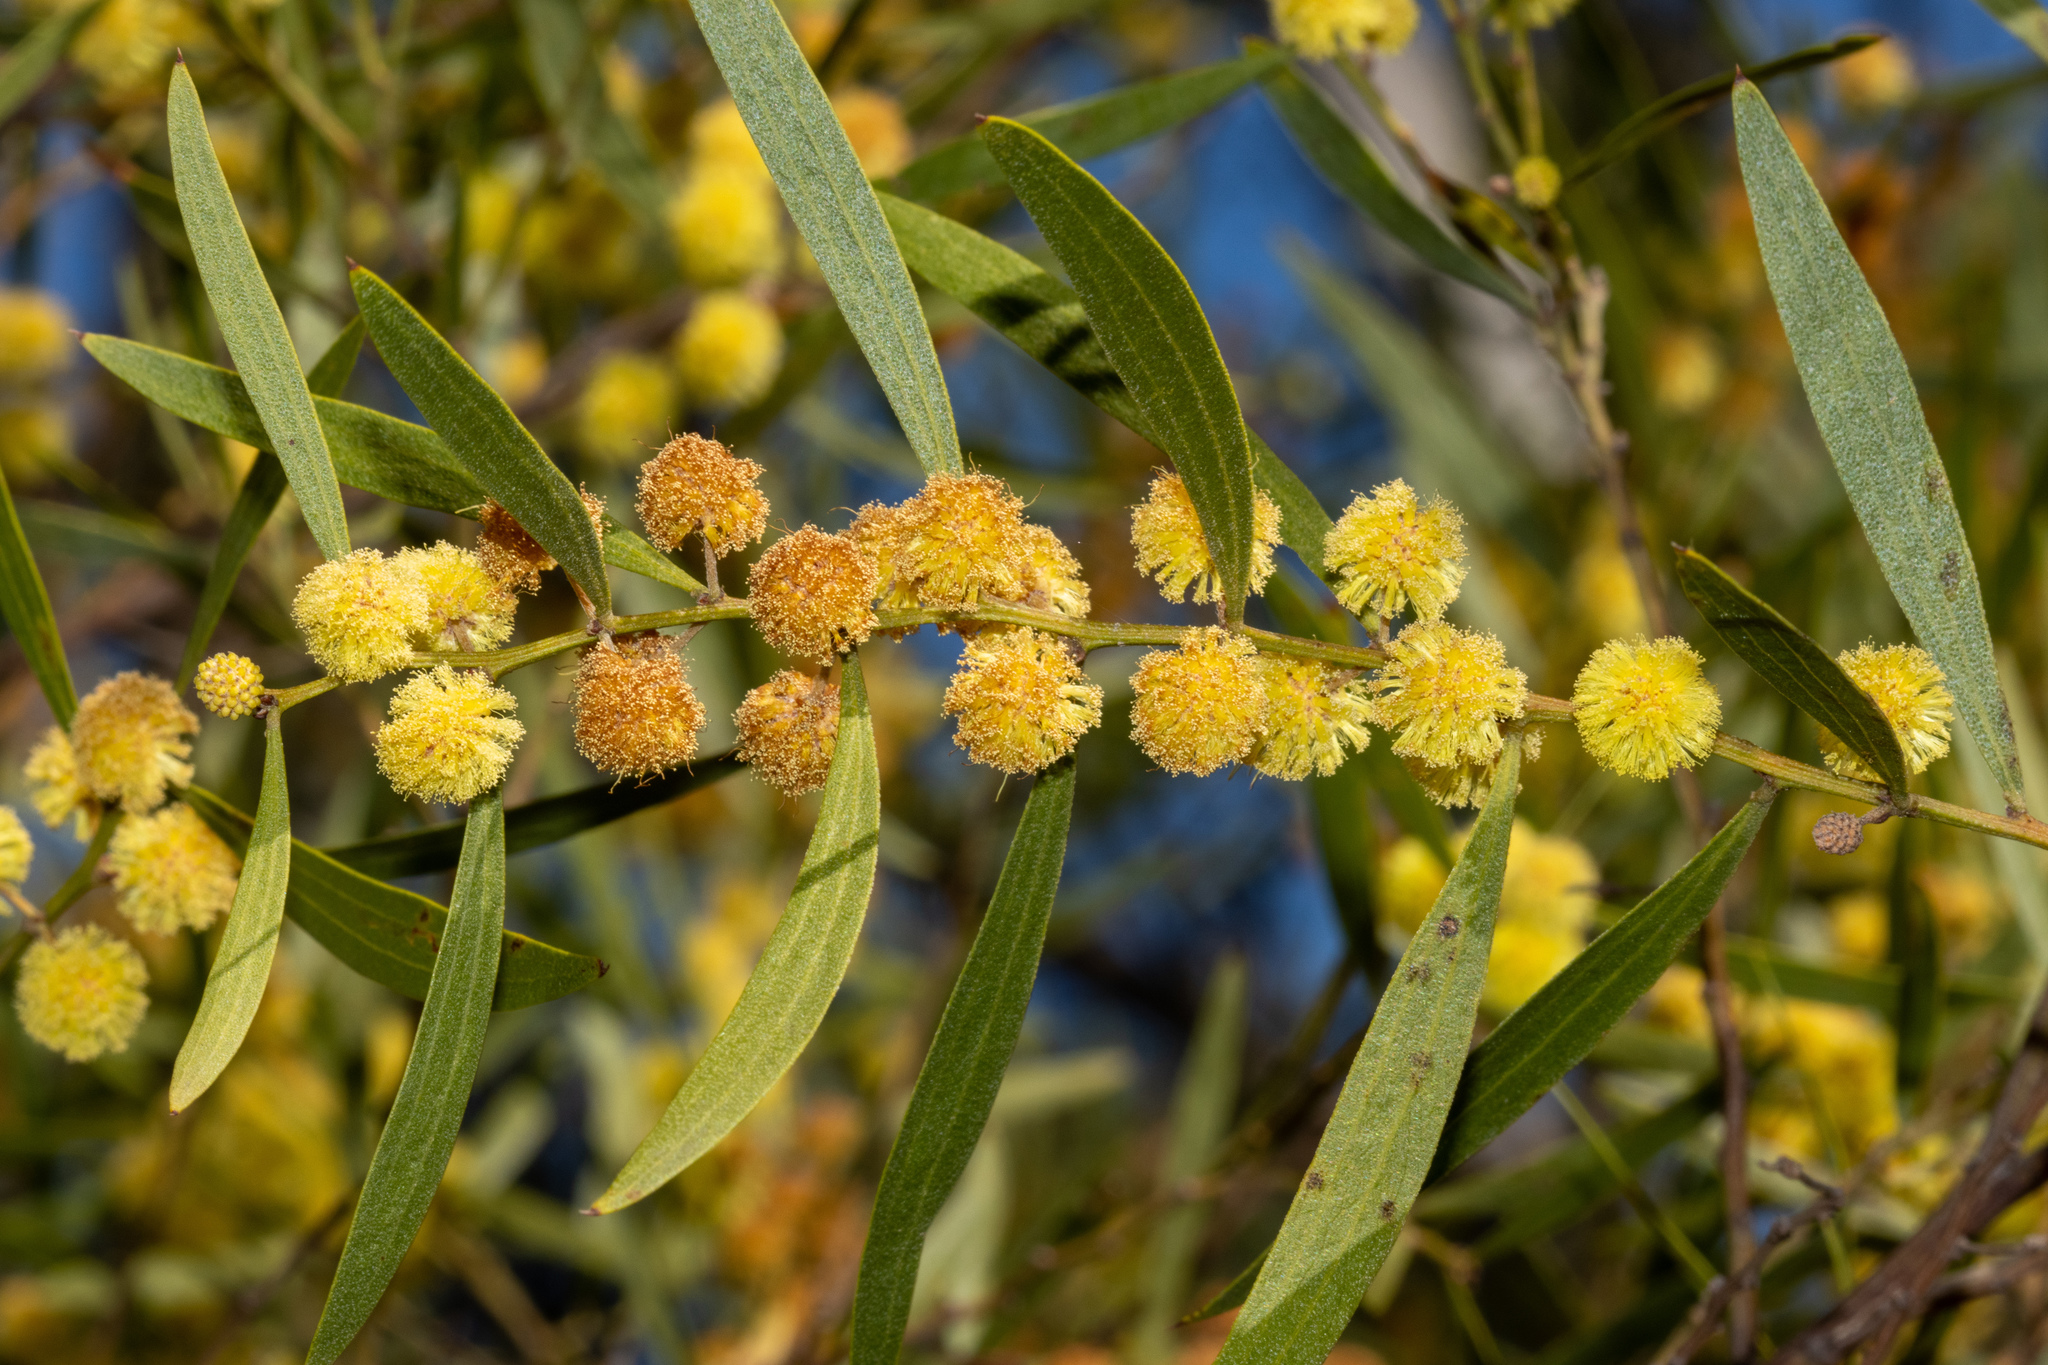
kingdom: Plantae
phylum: Tracheophyta
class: Magnoliopsida
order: Fabales
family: Fabaceae
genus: Acacia
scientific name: Acacia verniciflua
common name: Varnish wattle
